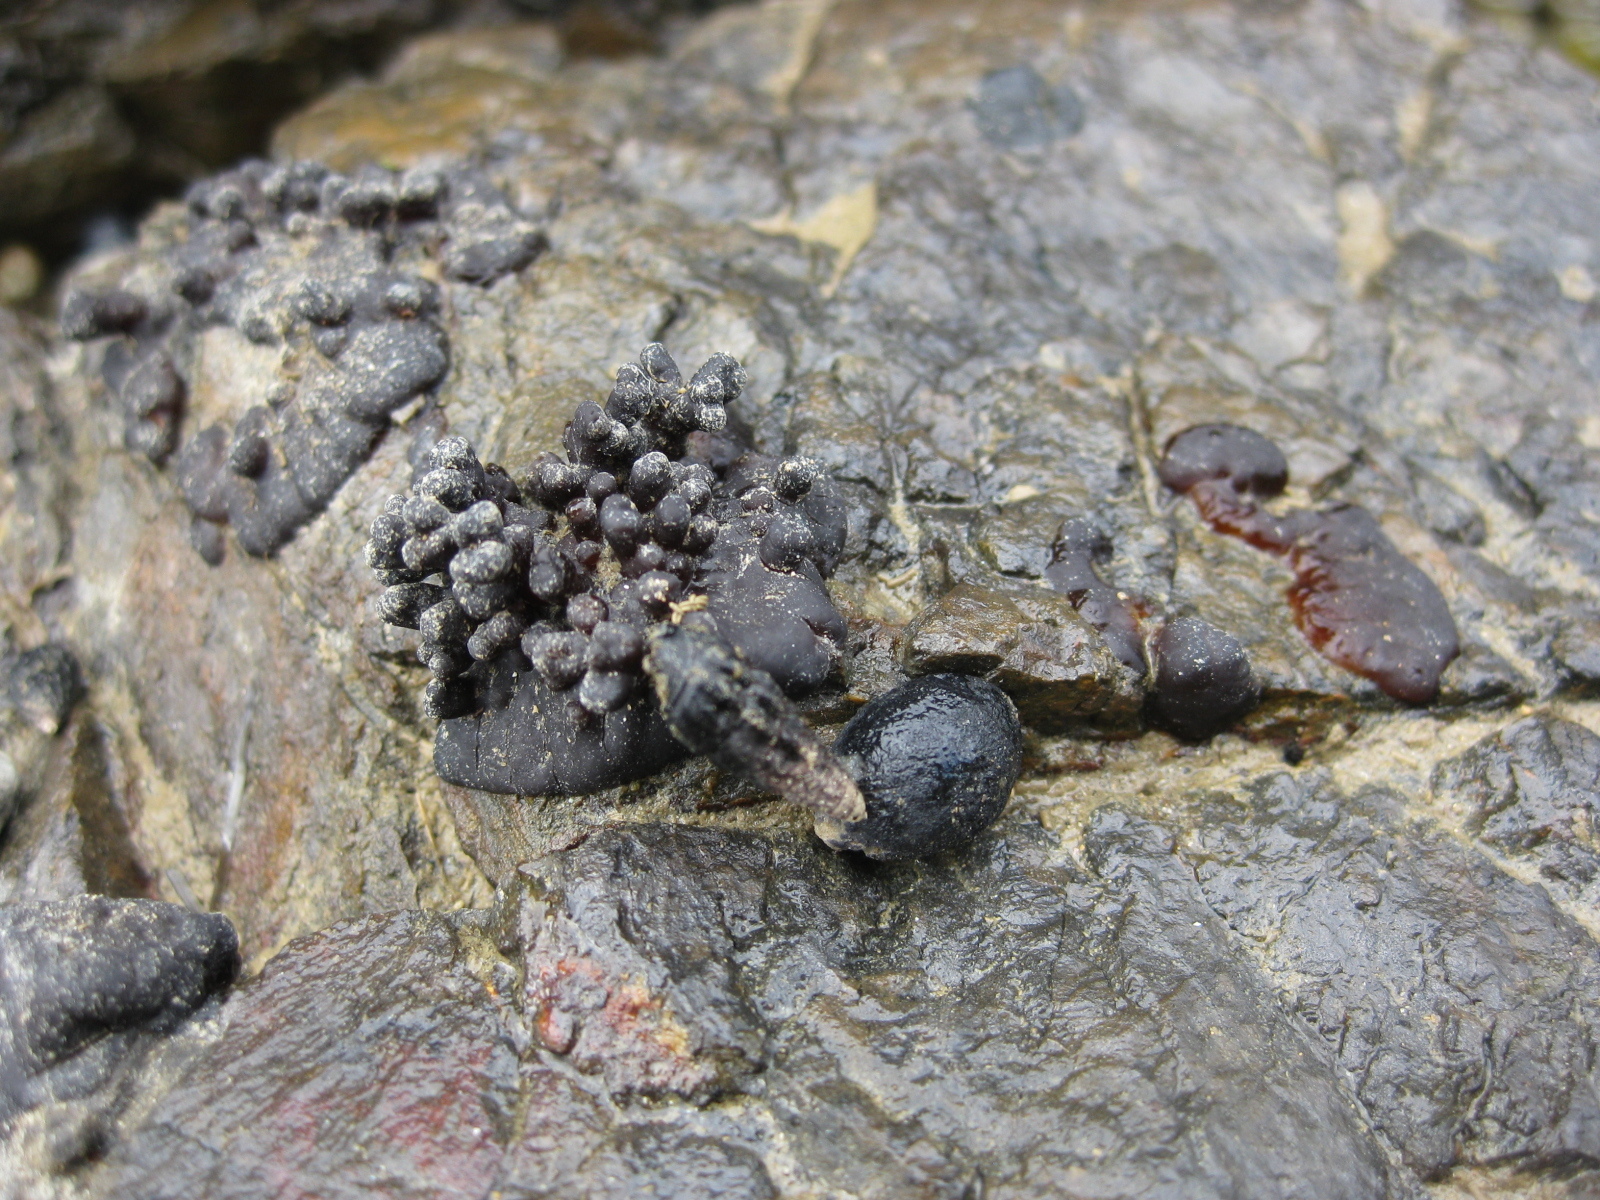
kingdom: Plantae
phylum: Rhodophyta
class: Florideophyceae
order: Hildenbrandiales
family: Hildenbrandiaceae
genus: Apophlaea
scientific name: Apophlaea sinclairii
